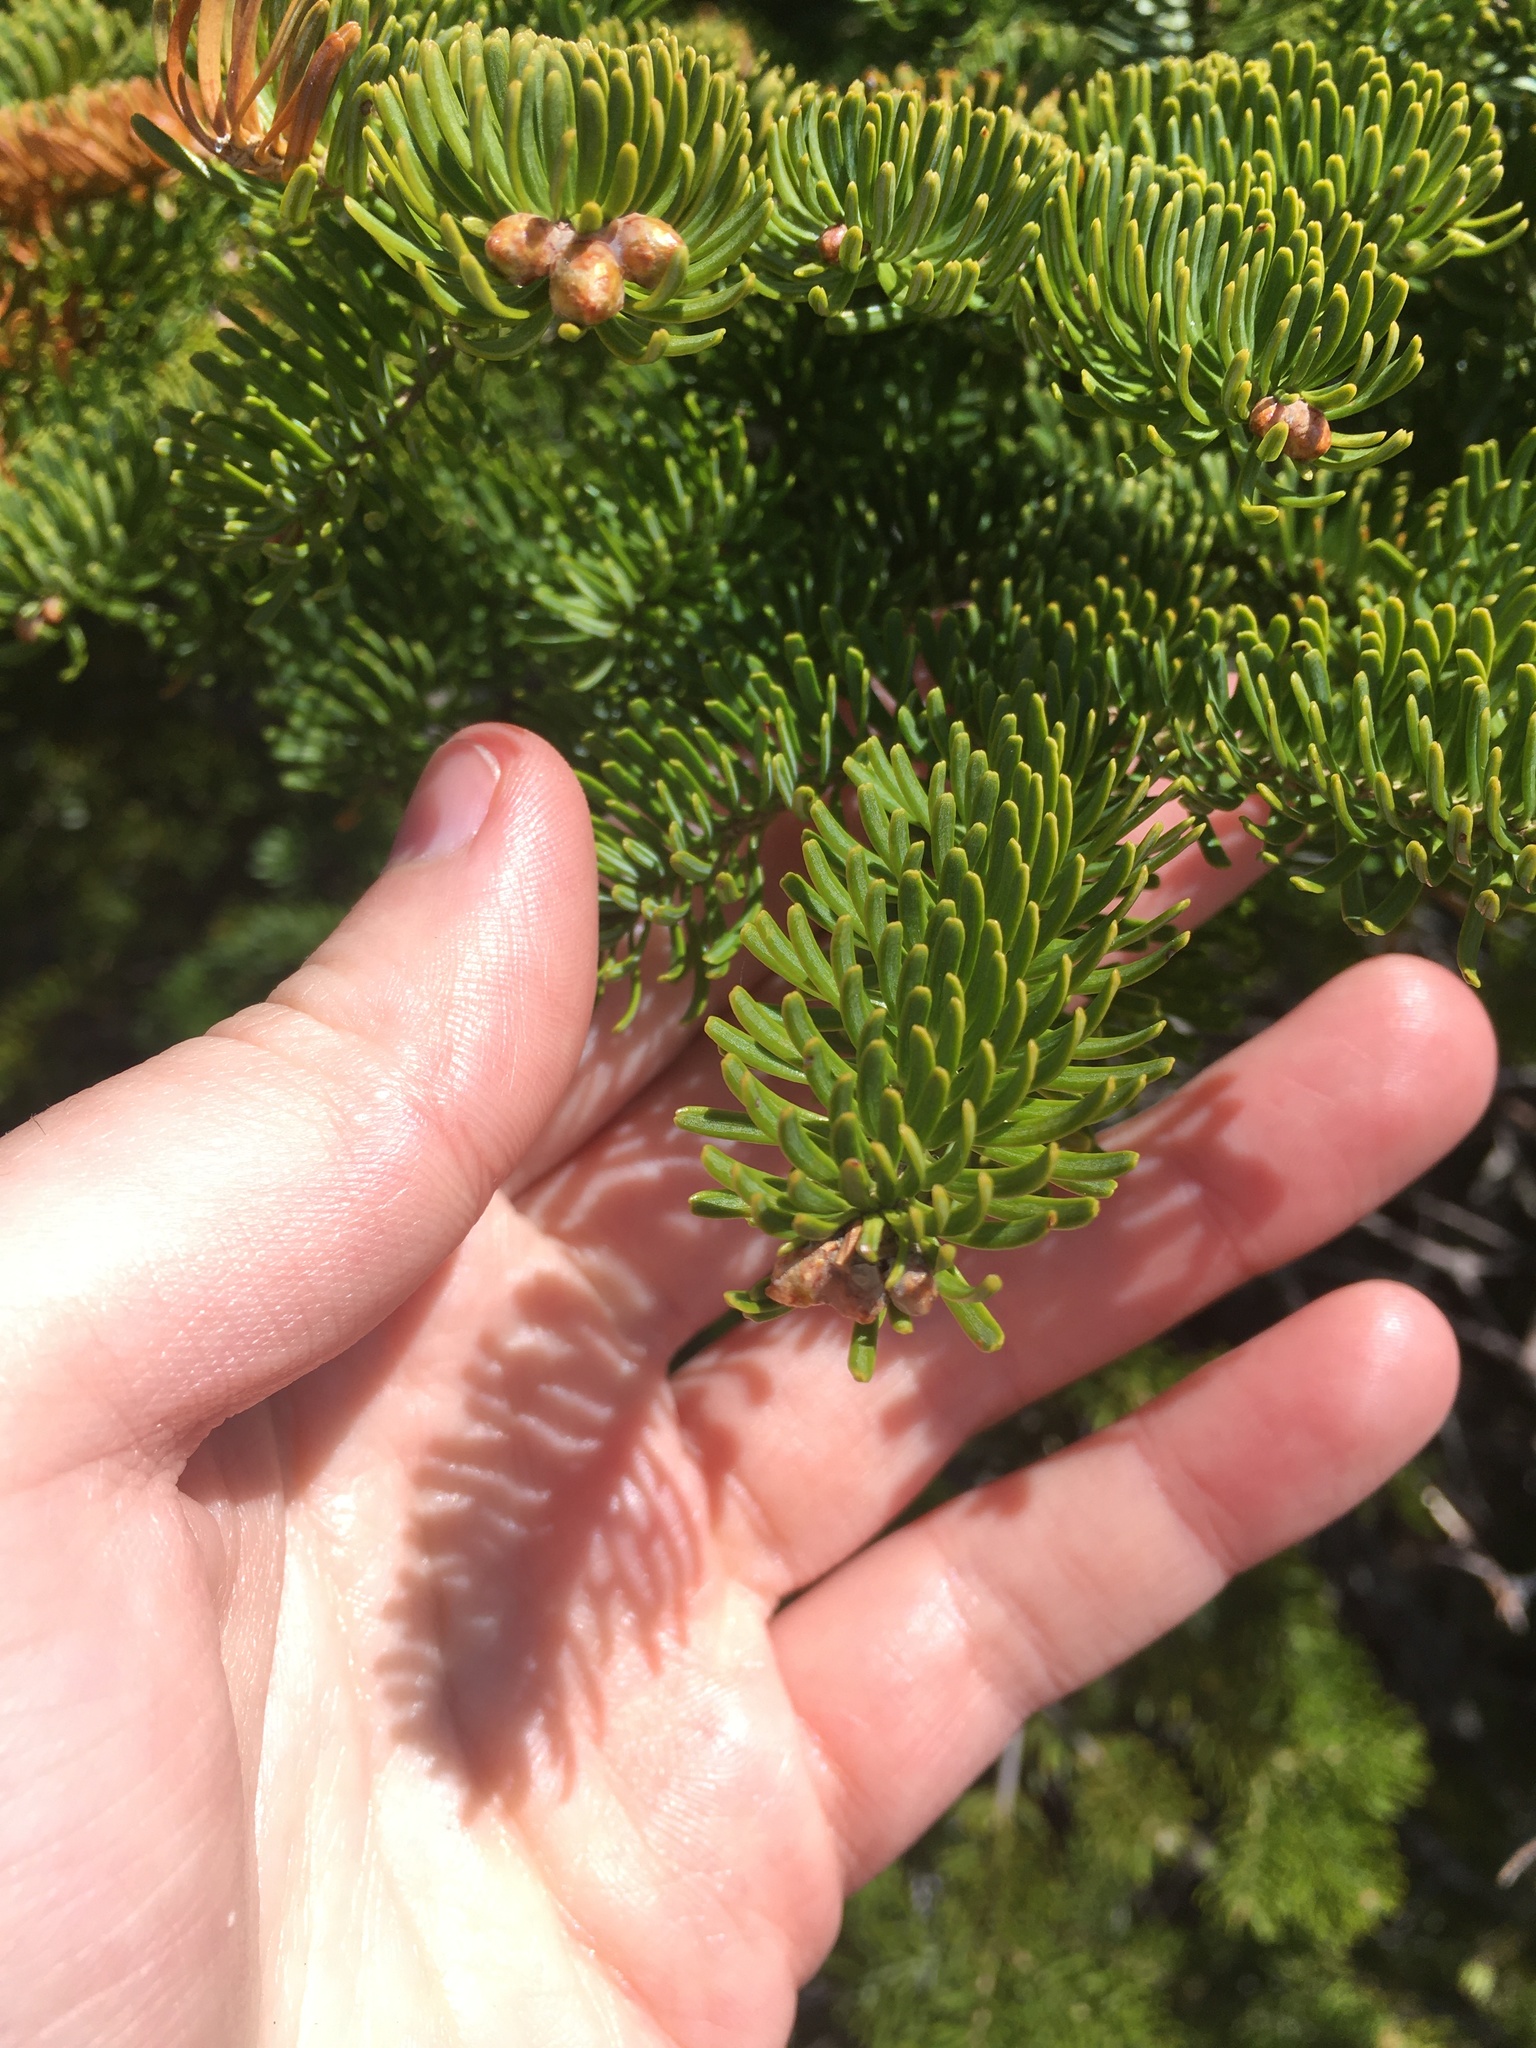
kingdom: Plantae
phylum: Tracheophyta
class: Pinopsida
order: Pinales
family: Pinaceae
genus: Abies
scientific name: Abies balsamea
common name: Balsam fir
